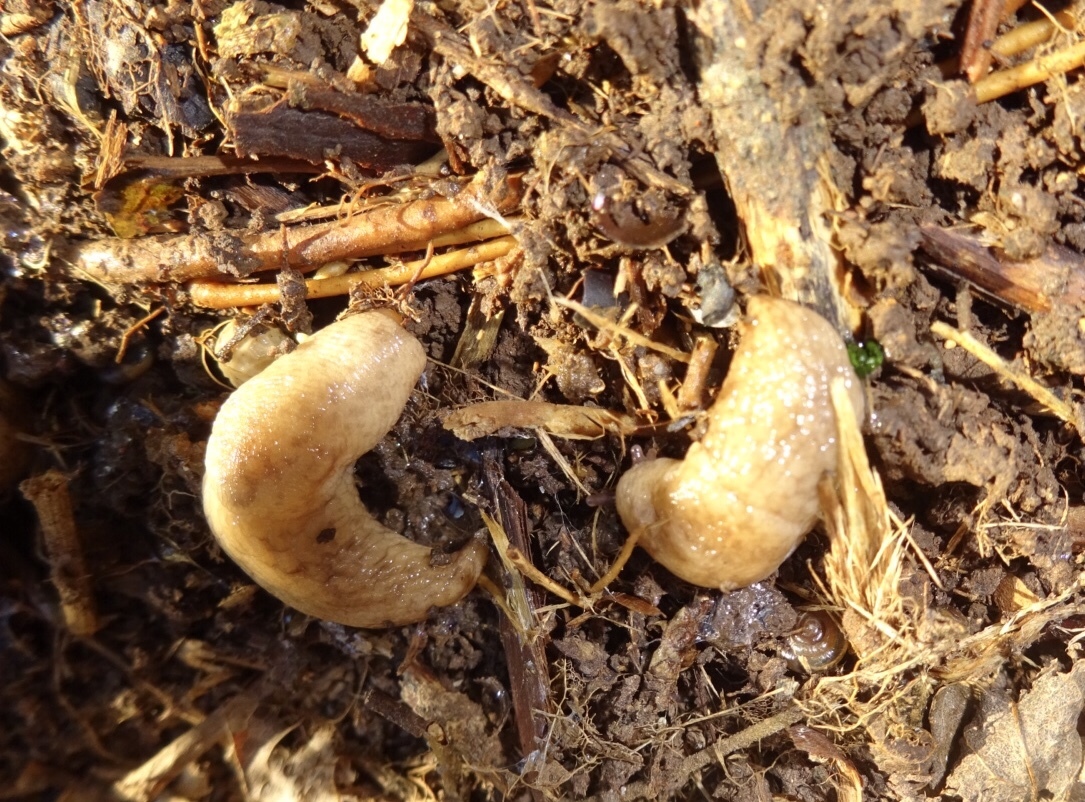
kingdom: Animalia
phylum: Mollusca
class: Gastropoda
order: Stylommatophora
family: Agriolimacidae
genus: Deroceras
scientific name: Deroceras reticulatum
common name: Gray field slug
